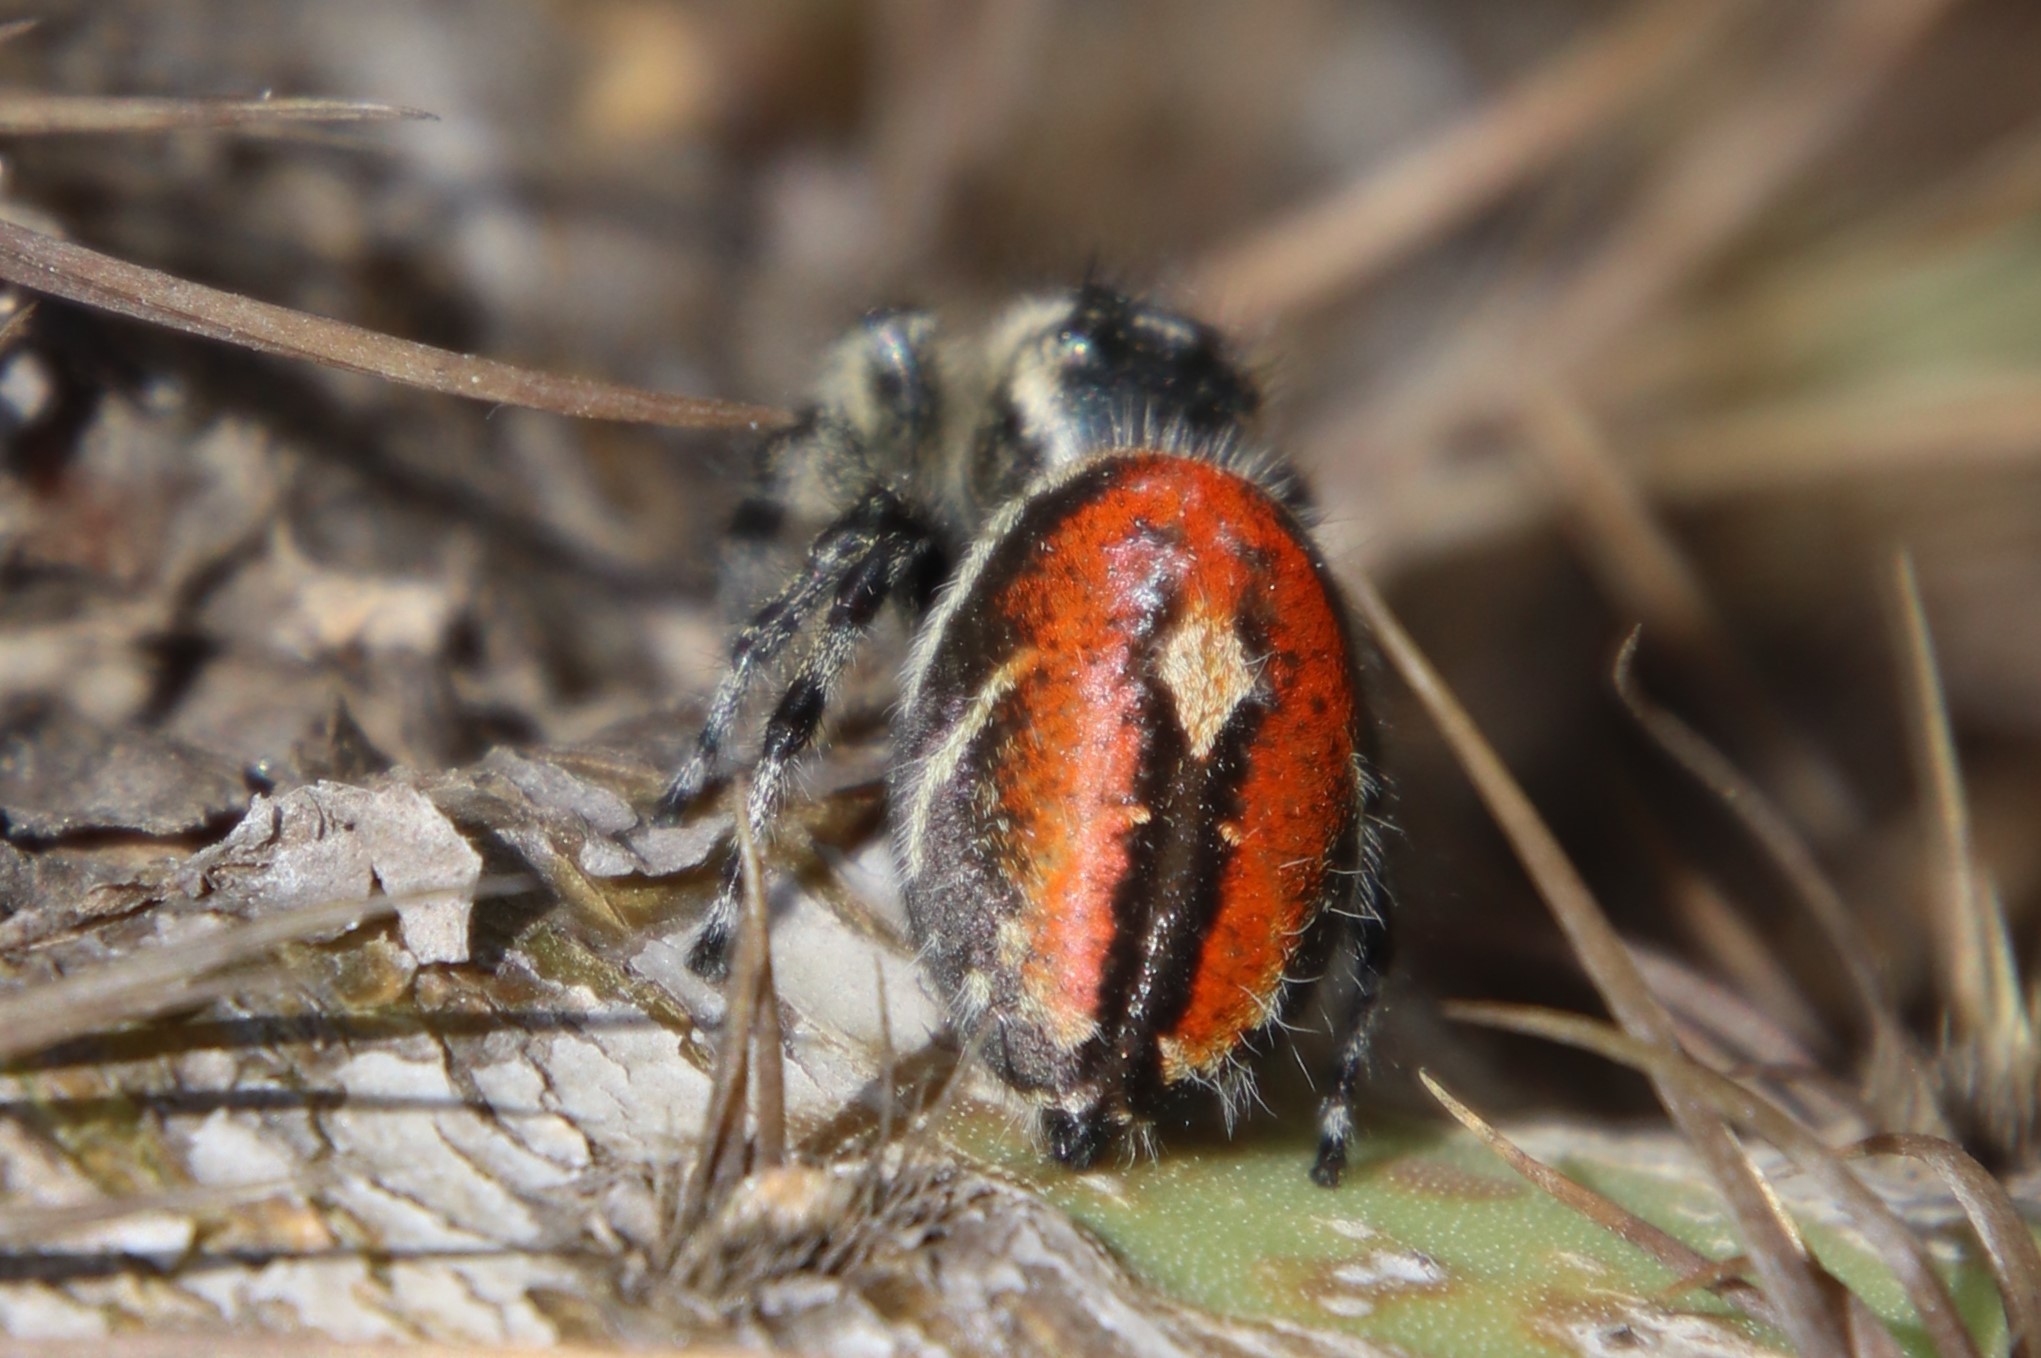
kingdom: Animalia
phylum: Arthropoda
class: Arachnida
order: Araneae
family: Salticidae
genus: Phidippus
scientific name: Phidippus phoenix
